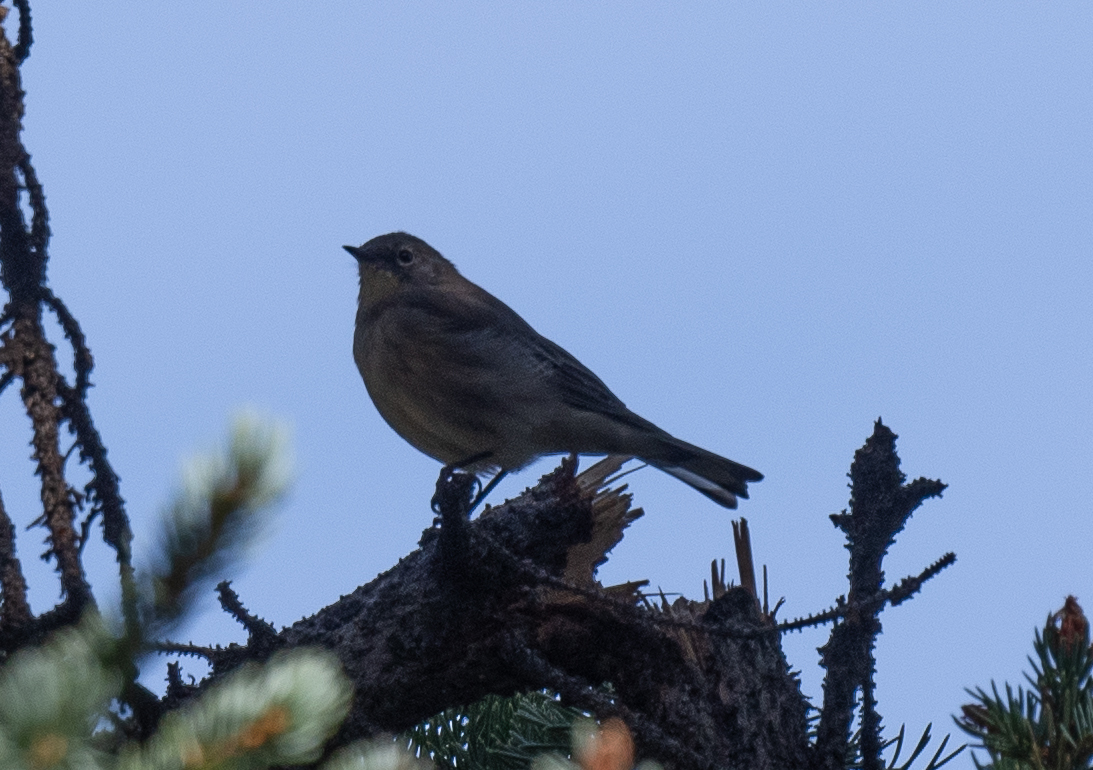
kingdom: Animalia
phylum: Chordata
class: Aves
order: Passeriformes
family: Parulidae
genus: Setophaga
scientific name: Setophaga coronata
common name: Myrtle warbler
